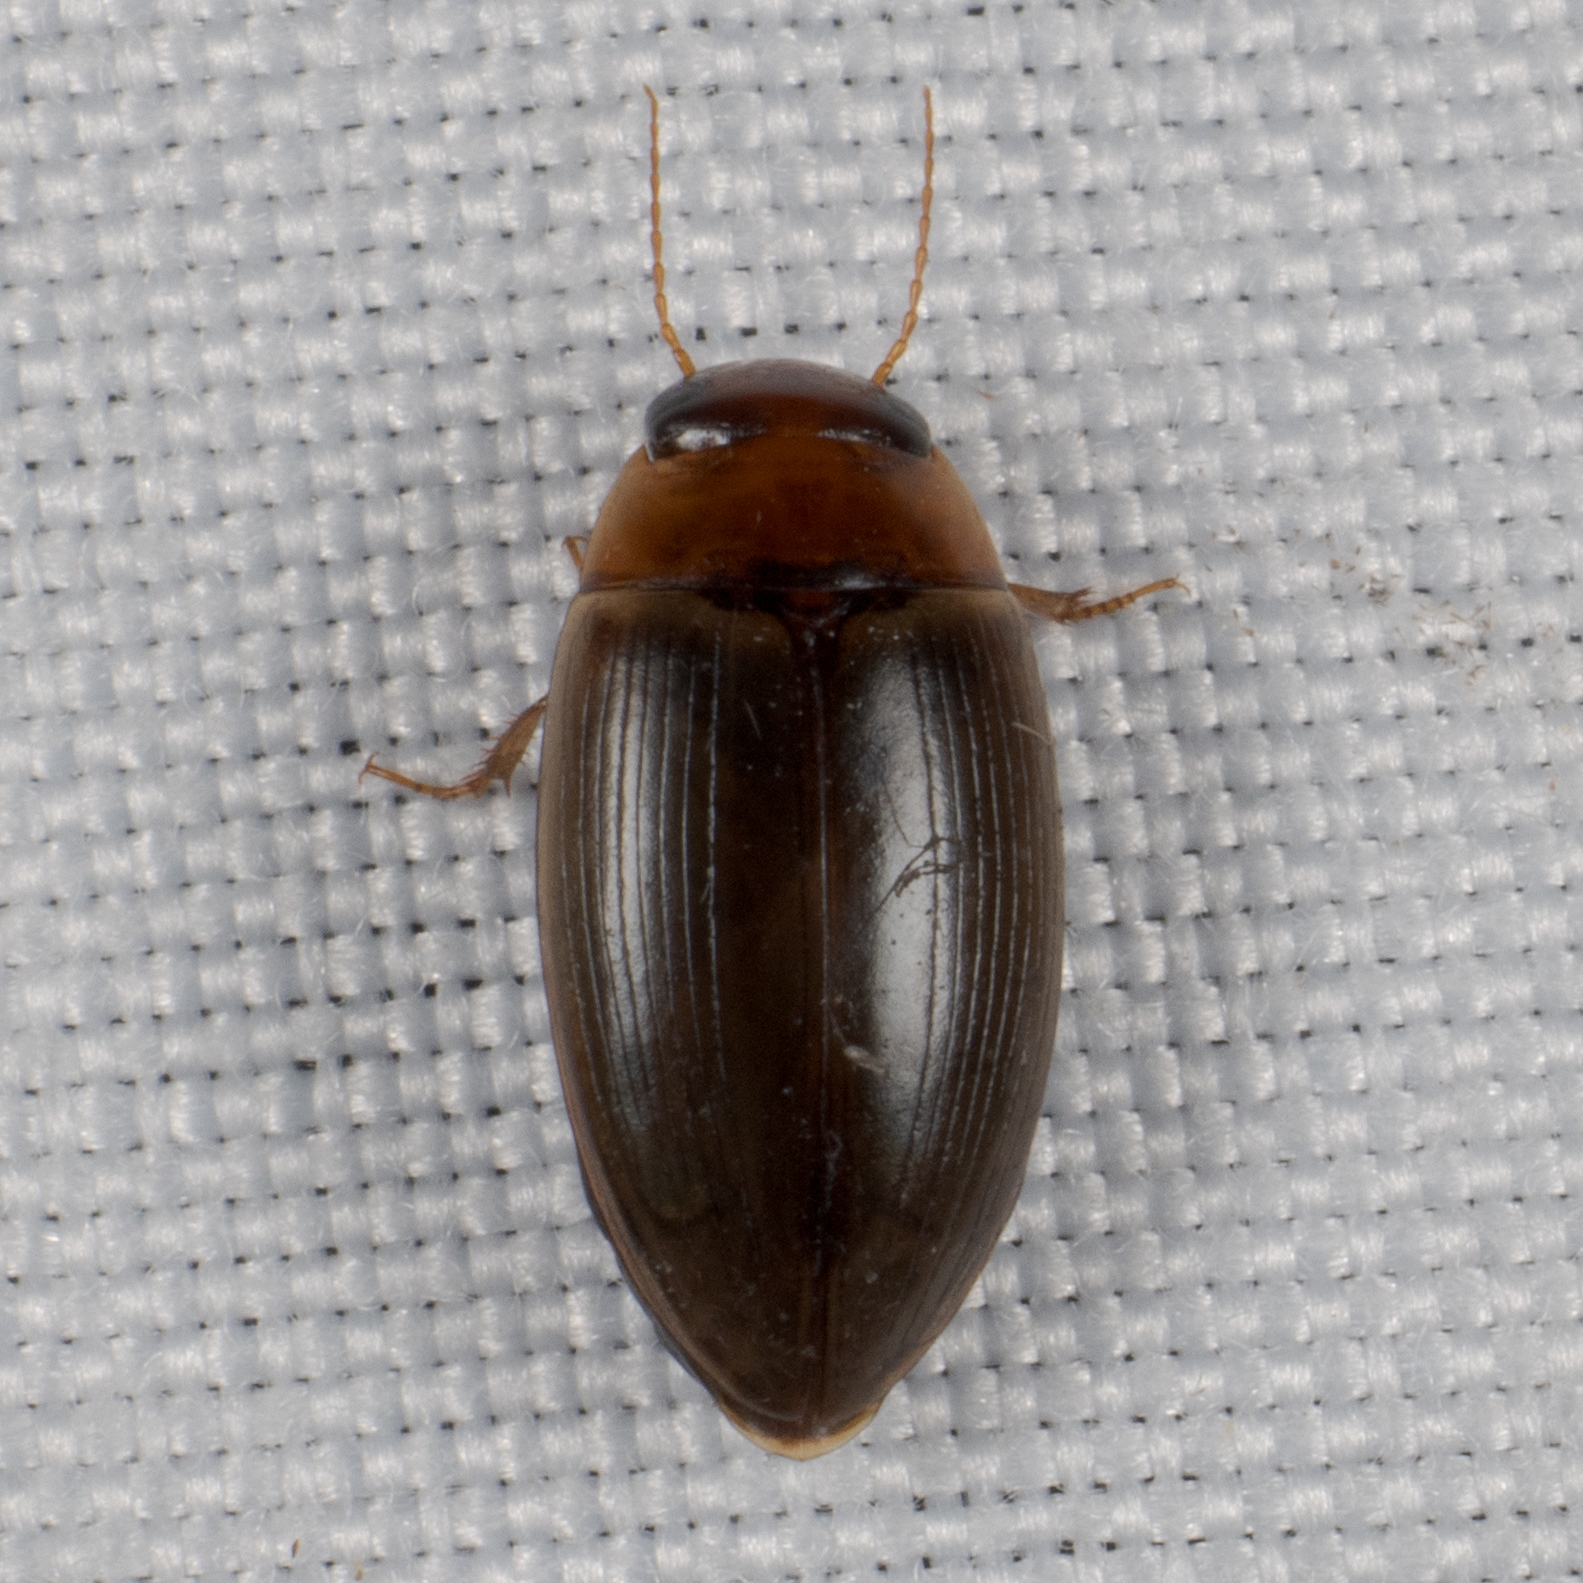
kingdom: Animalia
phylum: Arthropoda
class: Insecta
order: Coleoptera
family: Dytiscidae
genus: Copelatus
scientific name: Copelatus chevrolati
